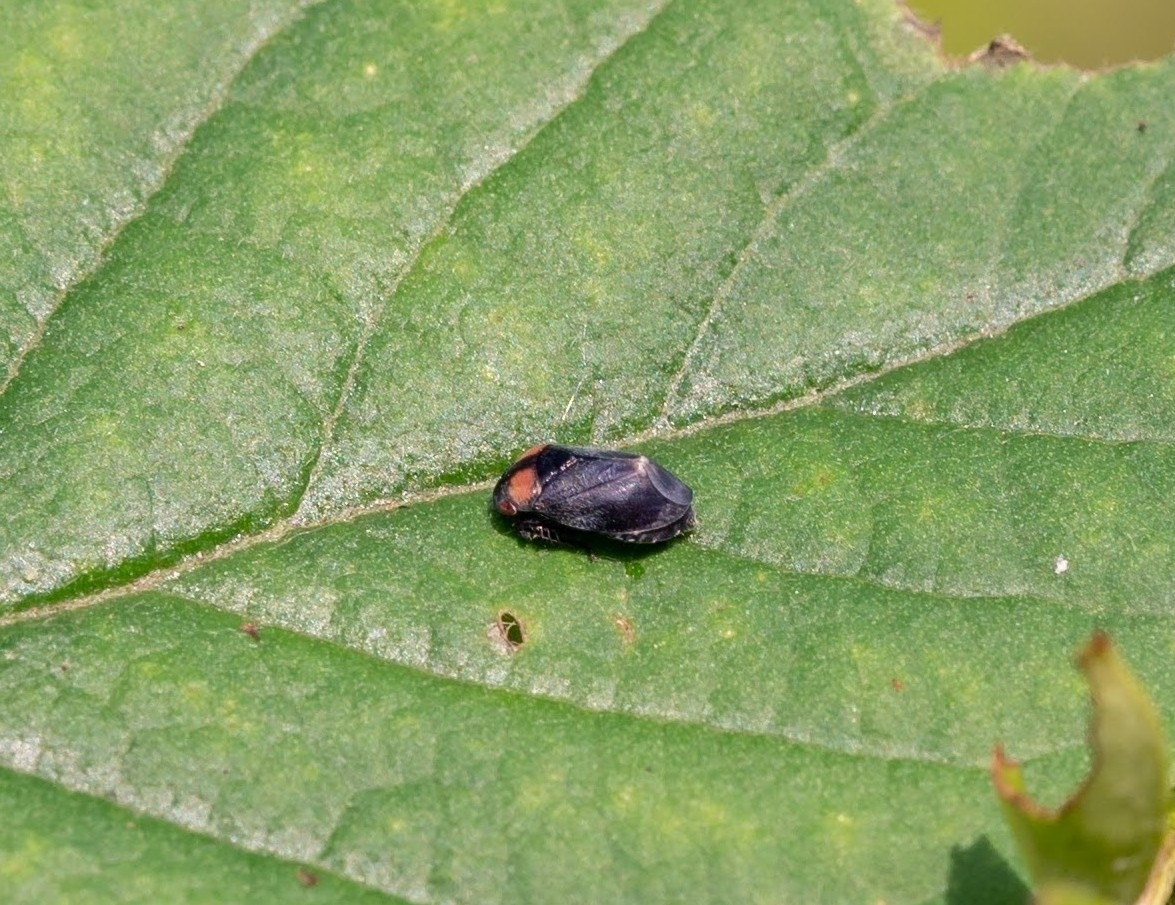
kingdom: Animalia
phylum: Arthropoda
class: Insecta
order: Hemiptera
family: Cicadellidae
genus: Penthimia
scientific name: Penthimia nigra
